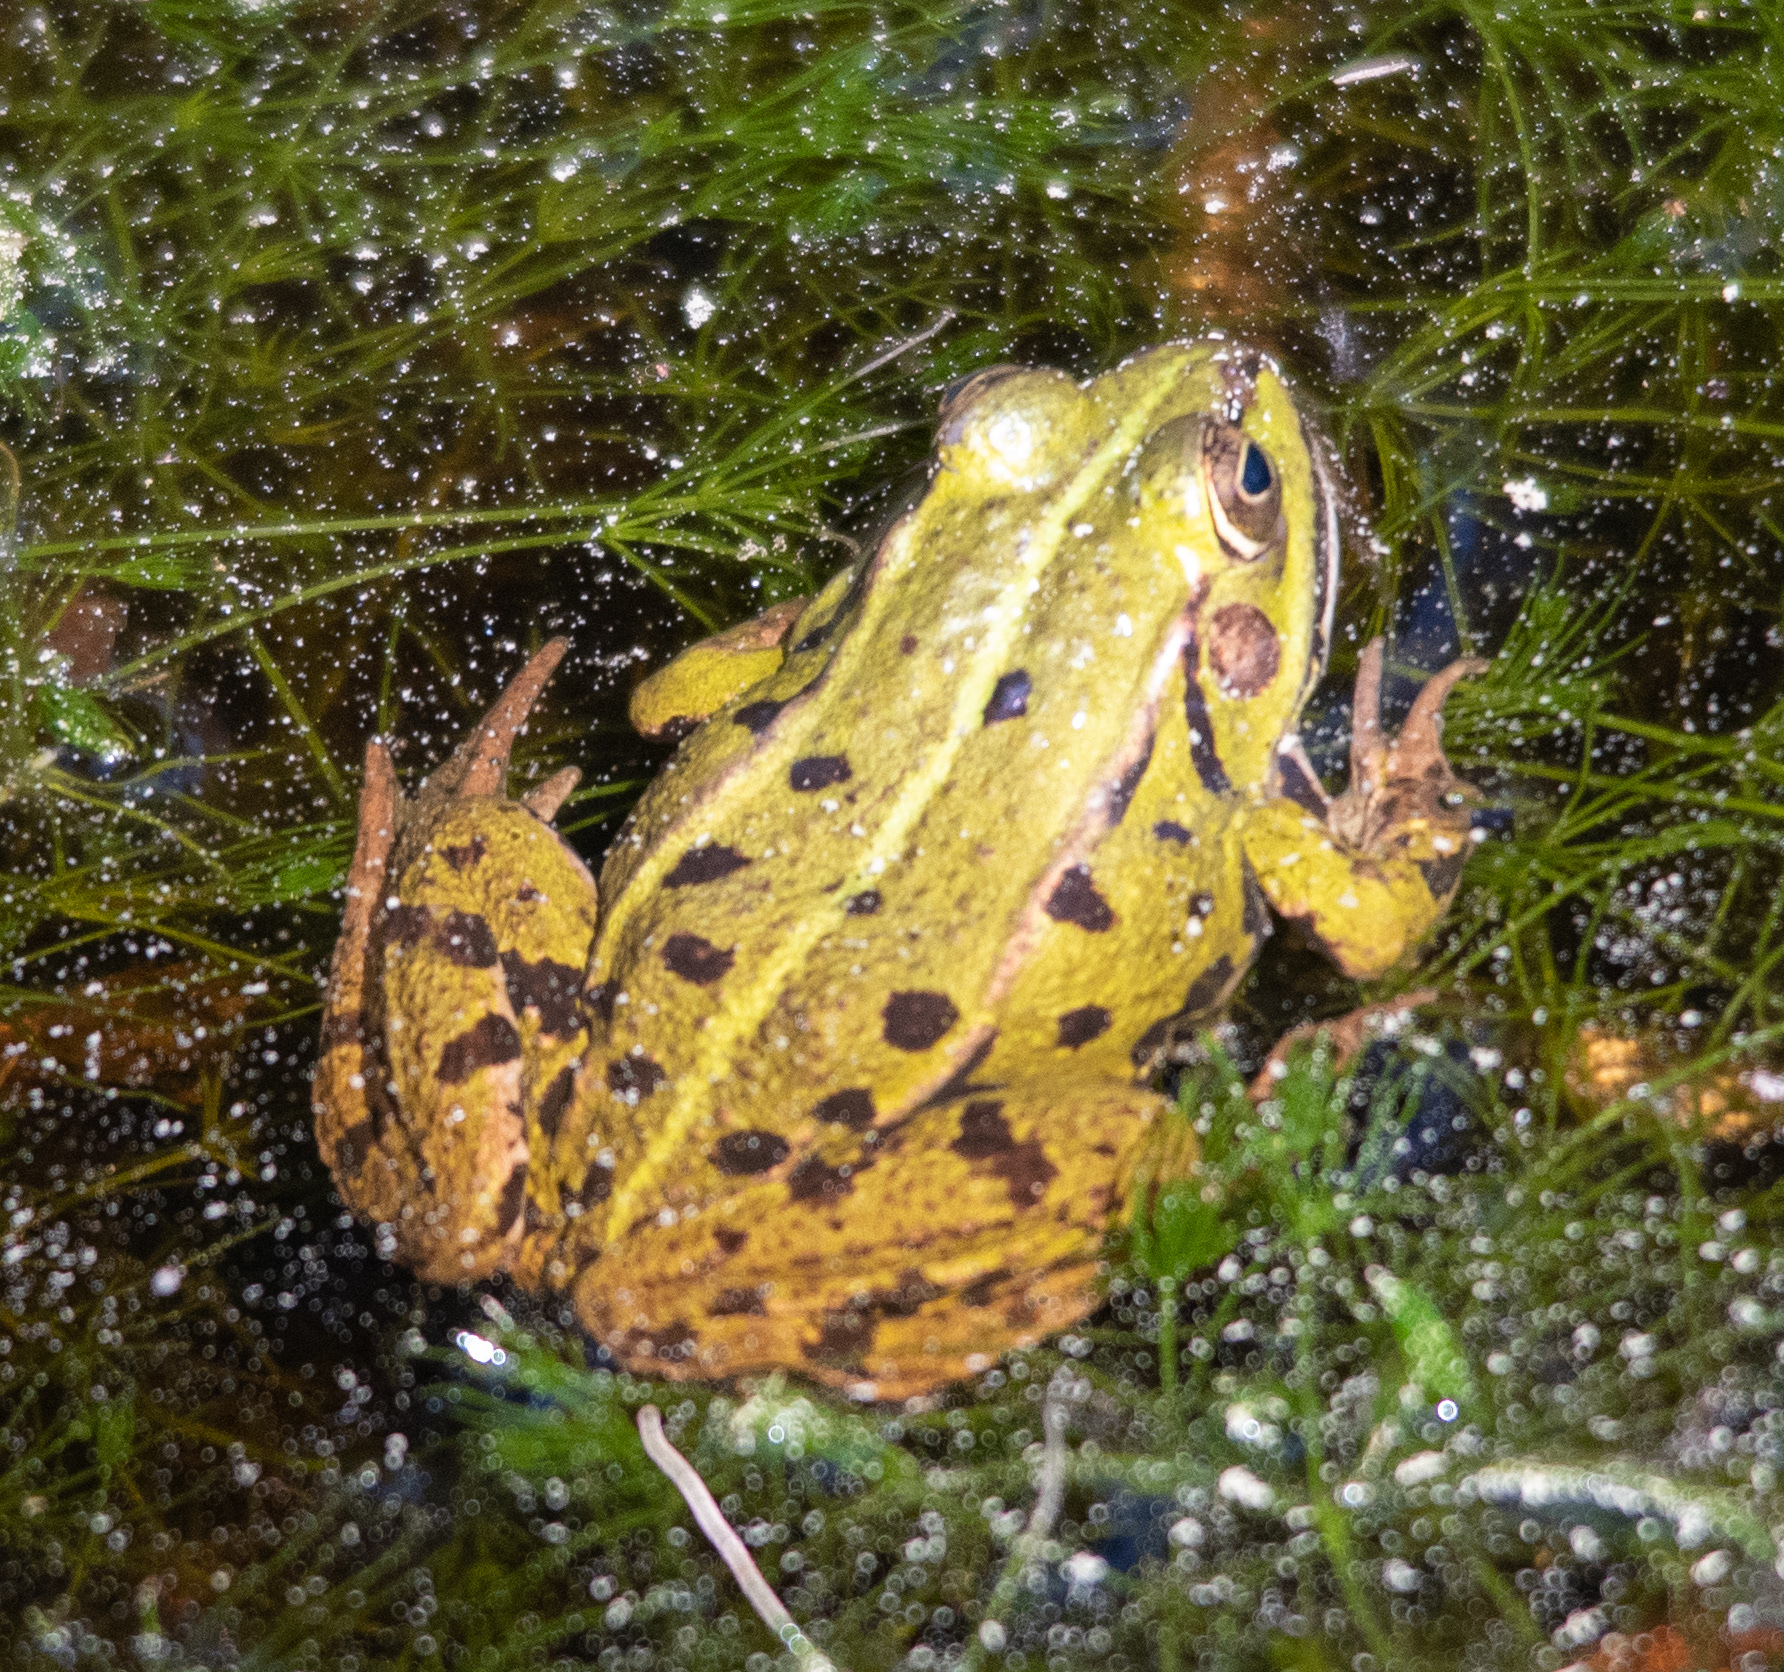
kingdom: Animalia
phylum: Chordata
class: Amphibia
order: Anura
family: Ranidae
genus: Pelophylax
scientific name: Pelophylax
